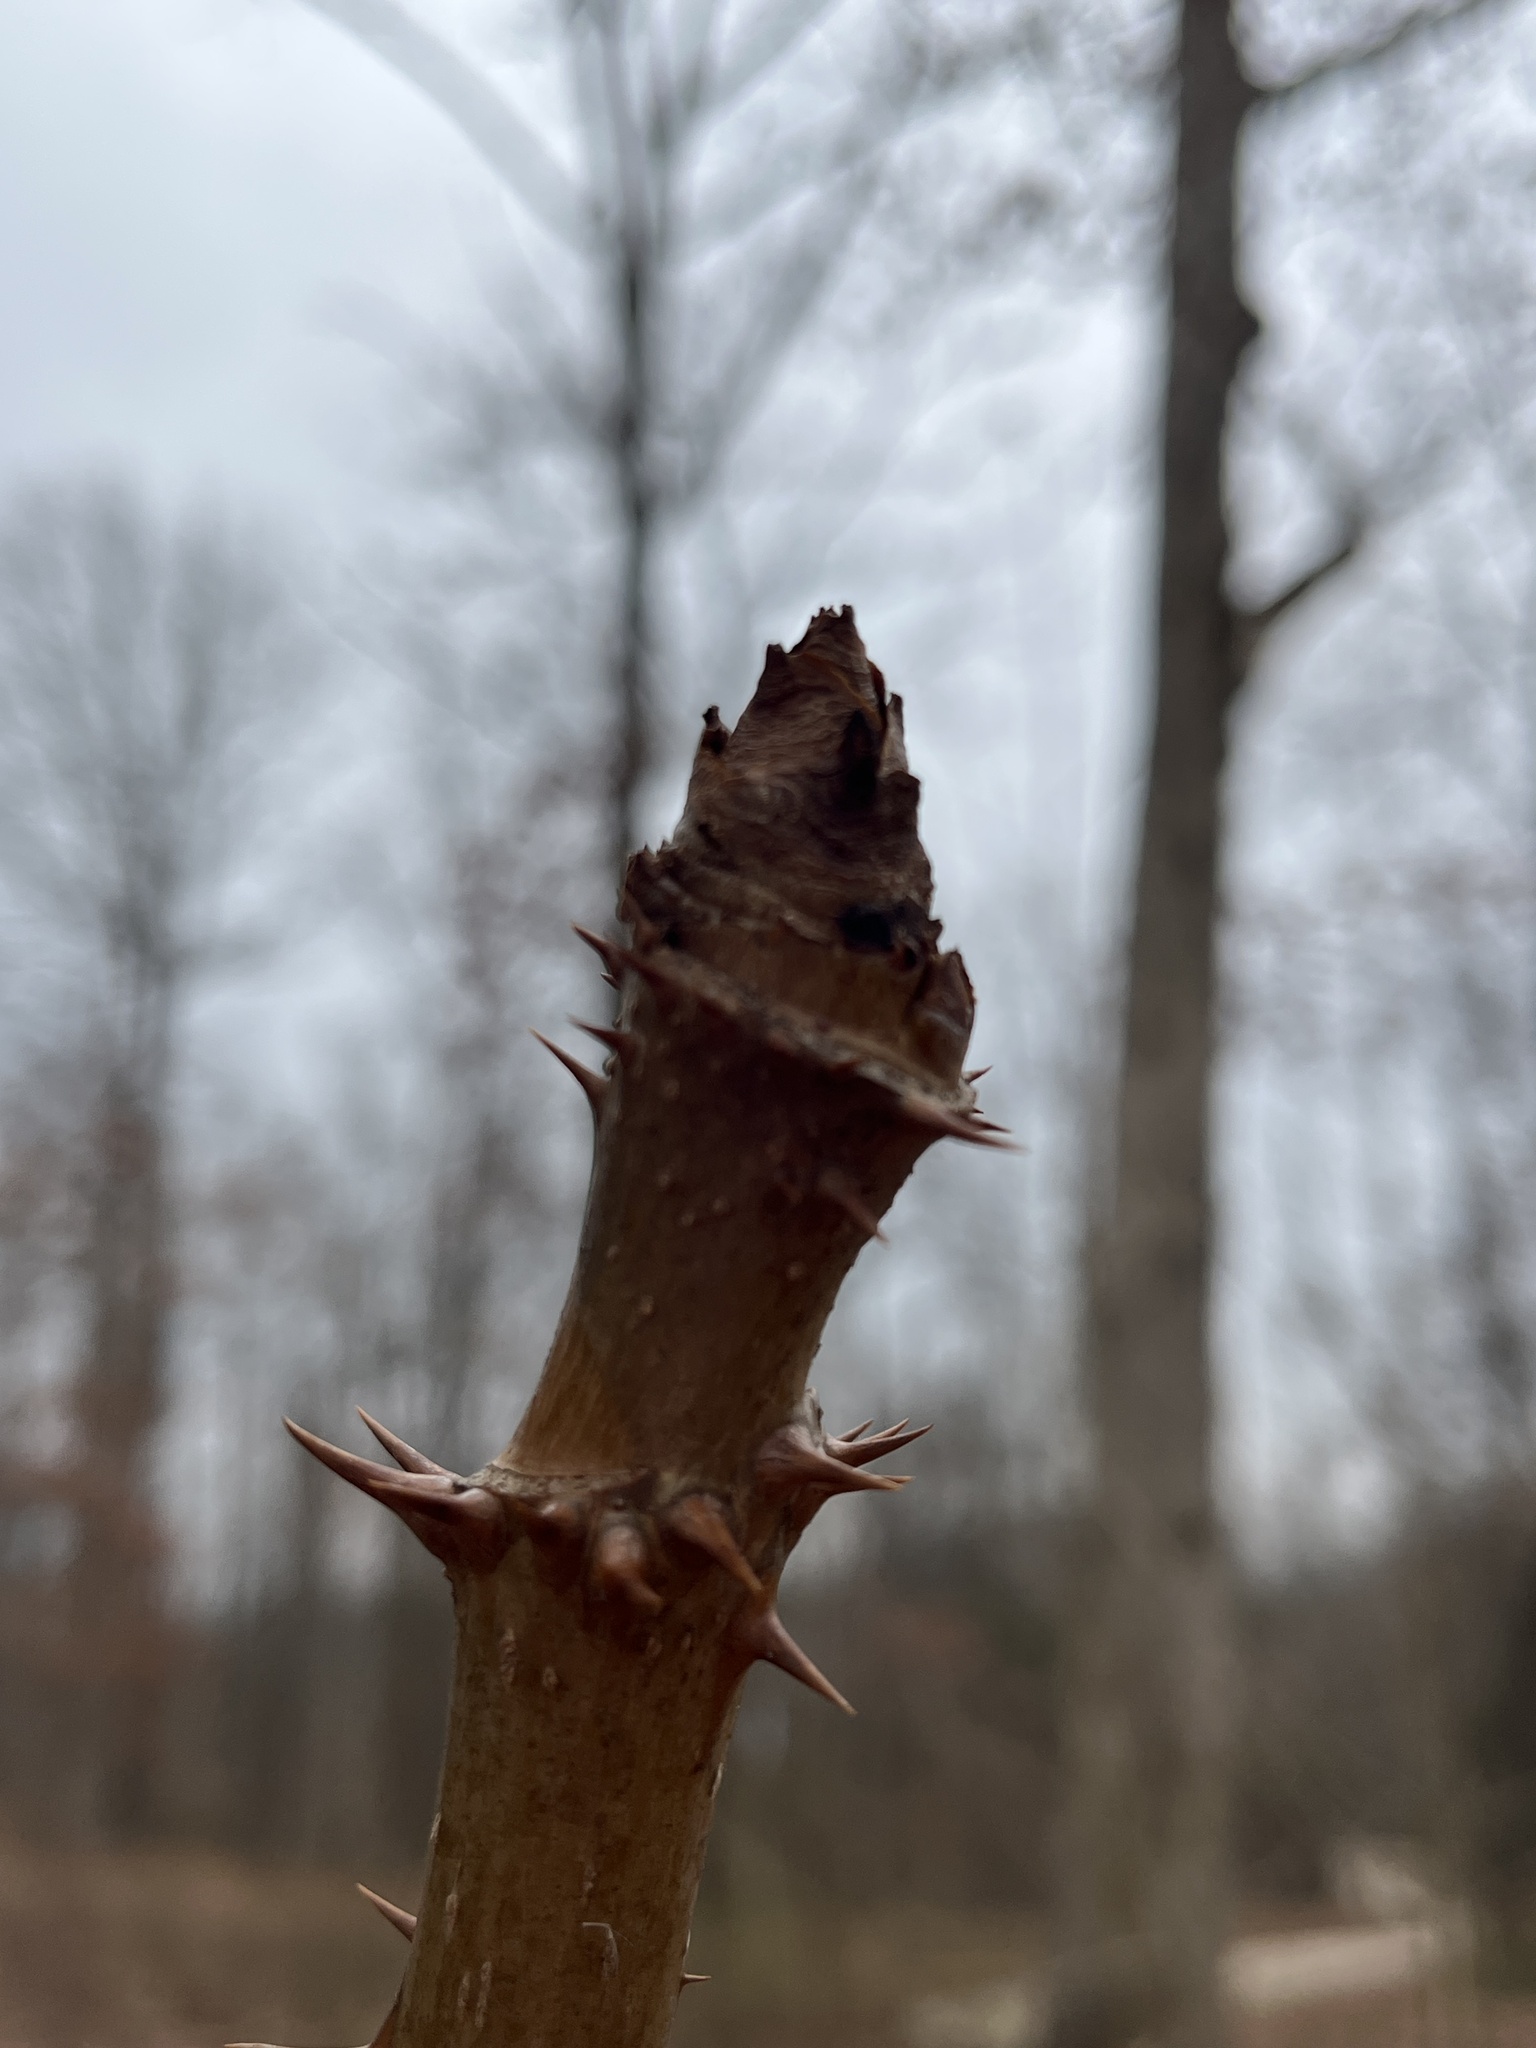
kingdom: Plantae
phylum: Tracheophyta
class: Magnoliopsida
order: Apiales
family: Araliaceae
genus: Aralia
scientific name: Aralia spinosa
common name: Hercules'-club
